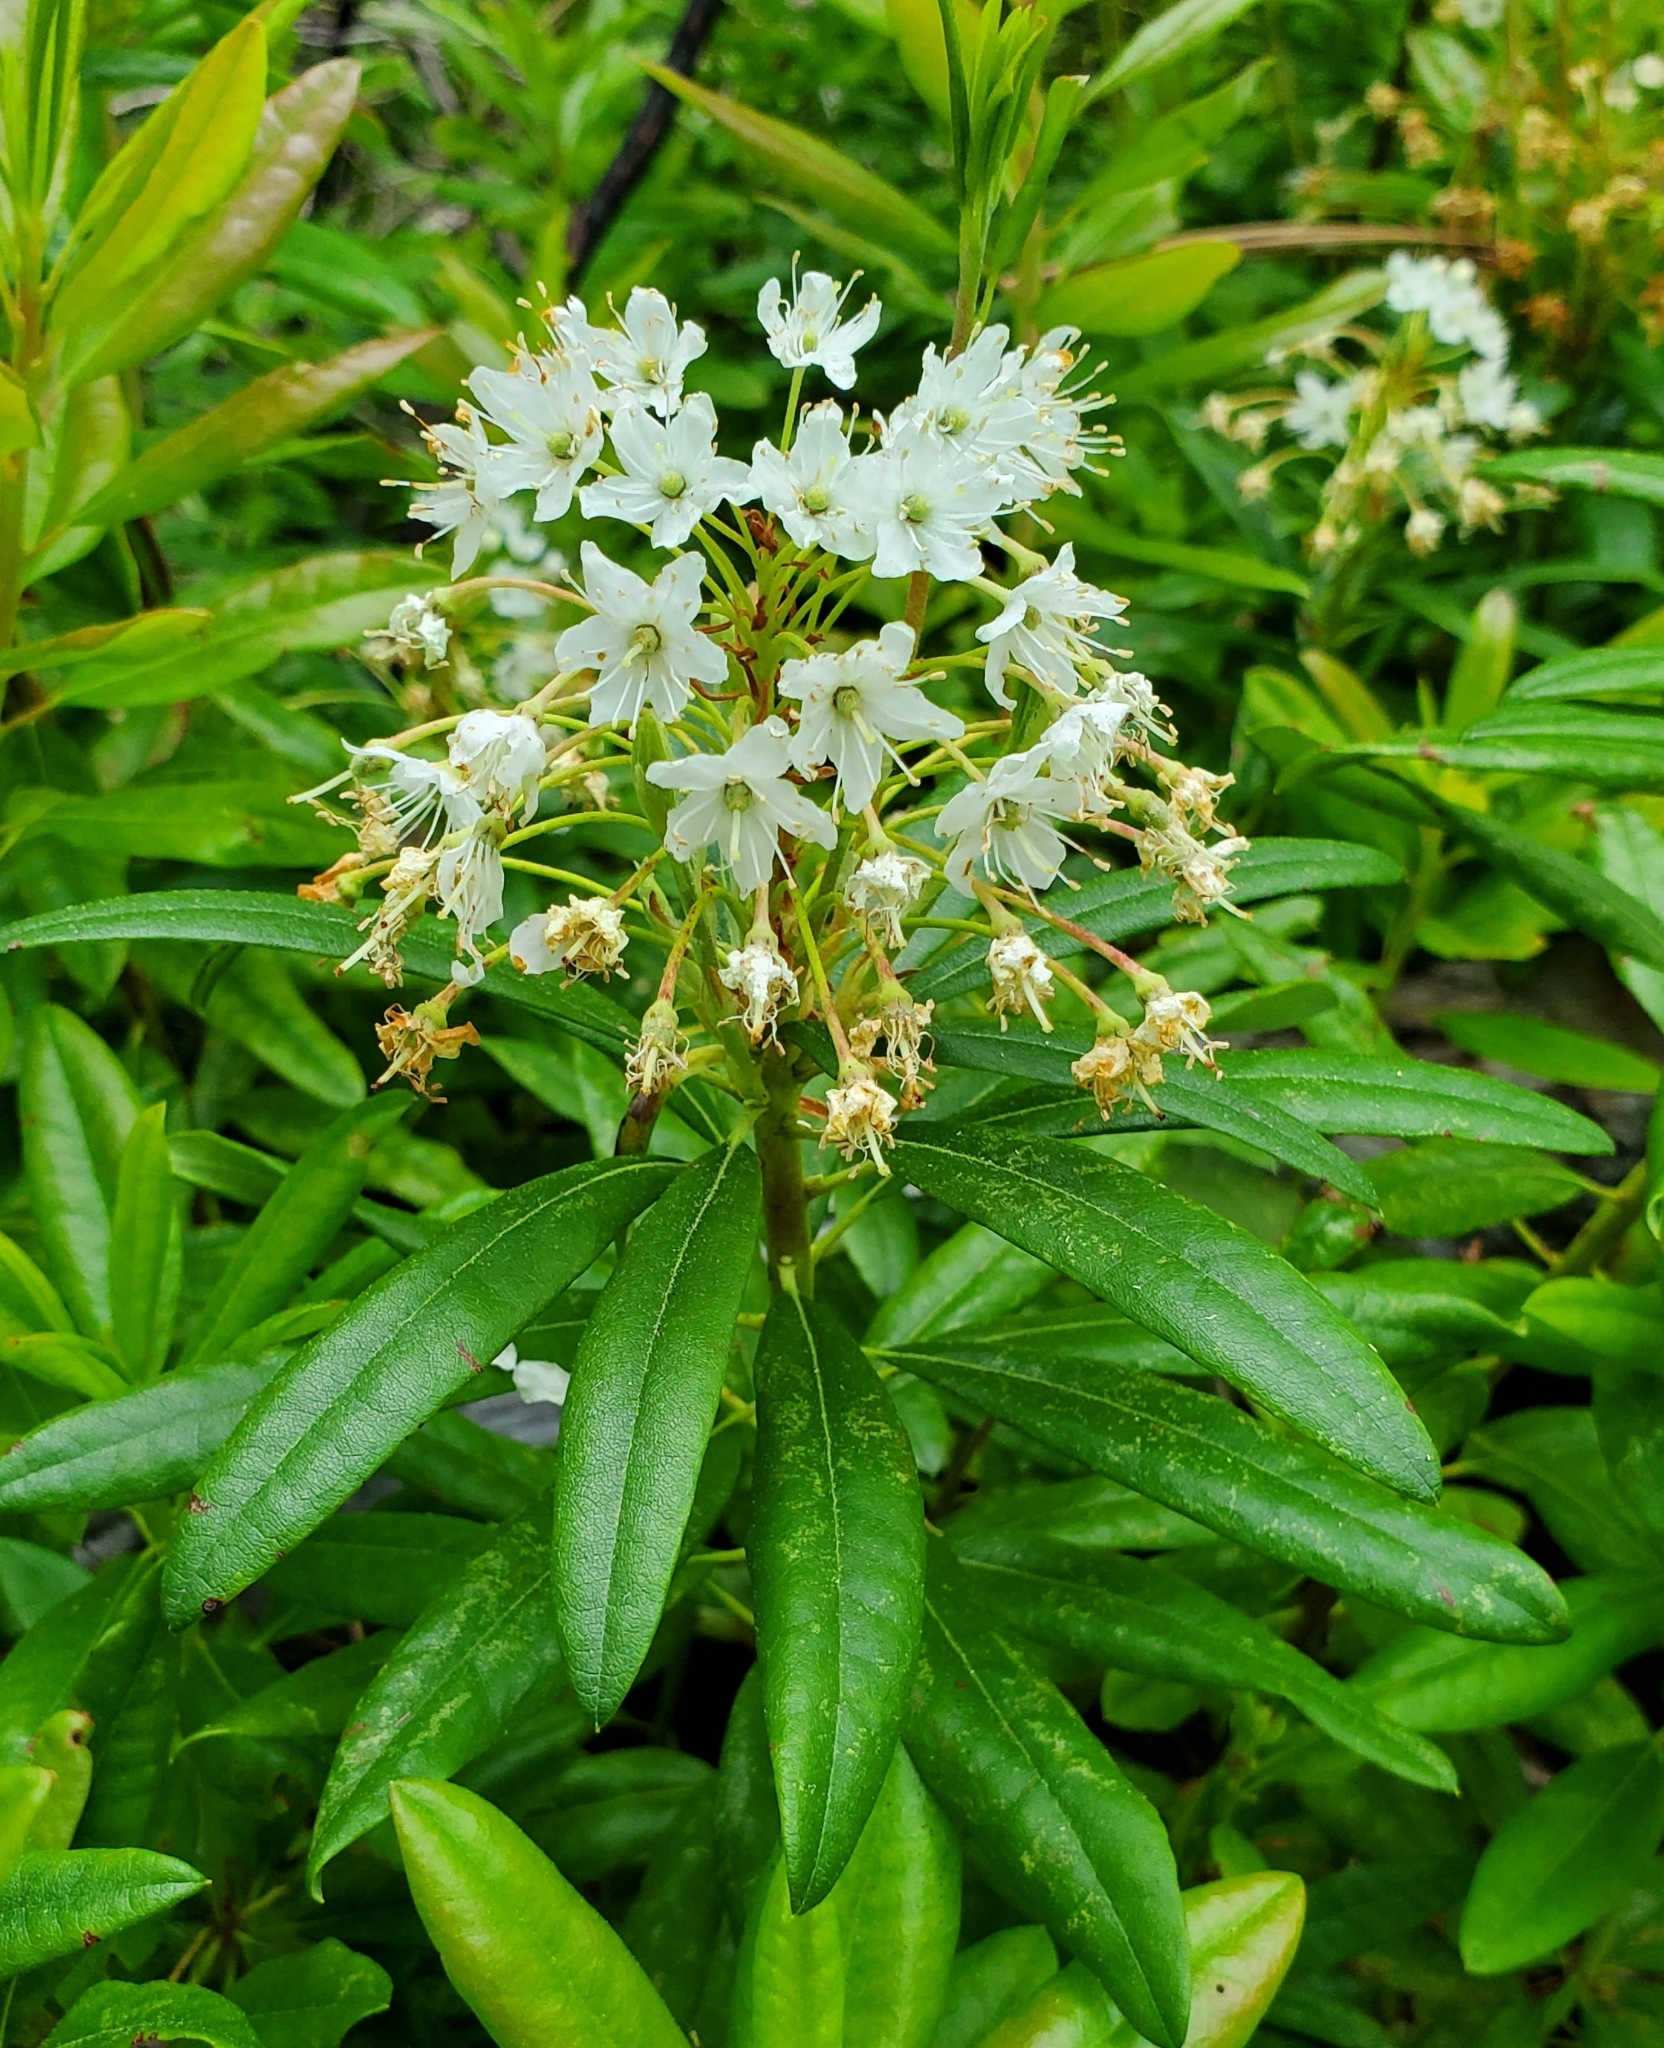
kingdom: Plantae
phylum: Tracheophyta
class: Magnoliopsida
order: Ericales
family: Ericaceae
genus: Rhododendron
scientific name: Rhododendron columbianum
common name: Western labrador tea
